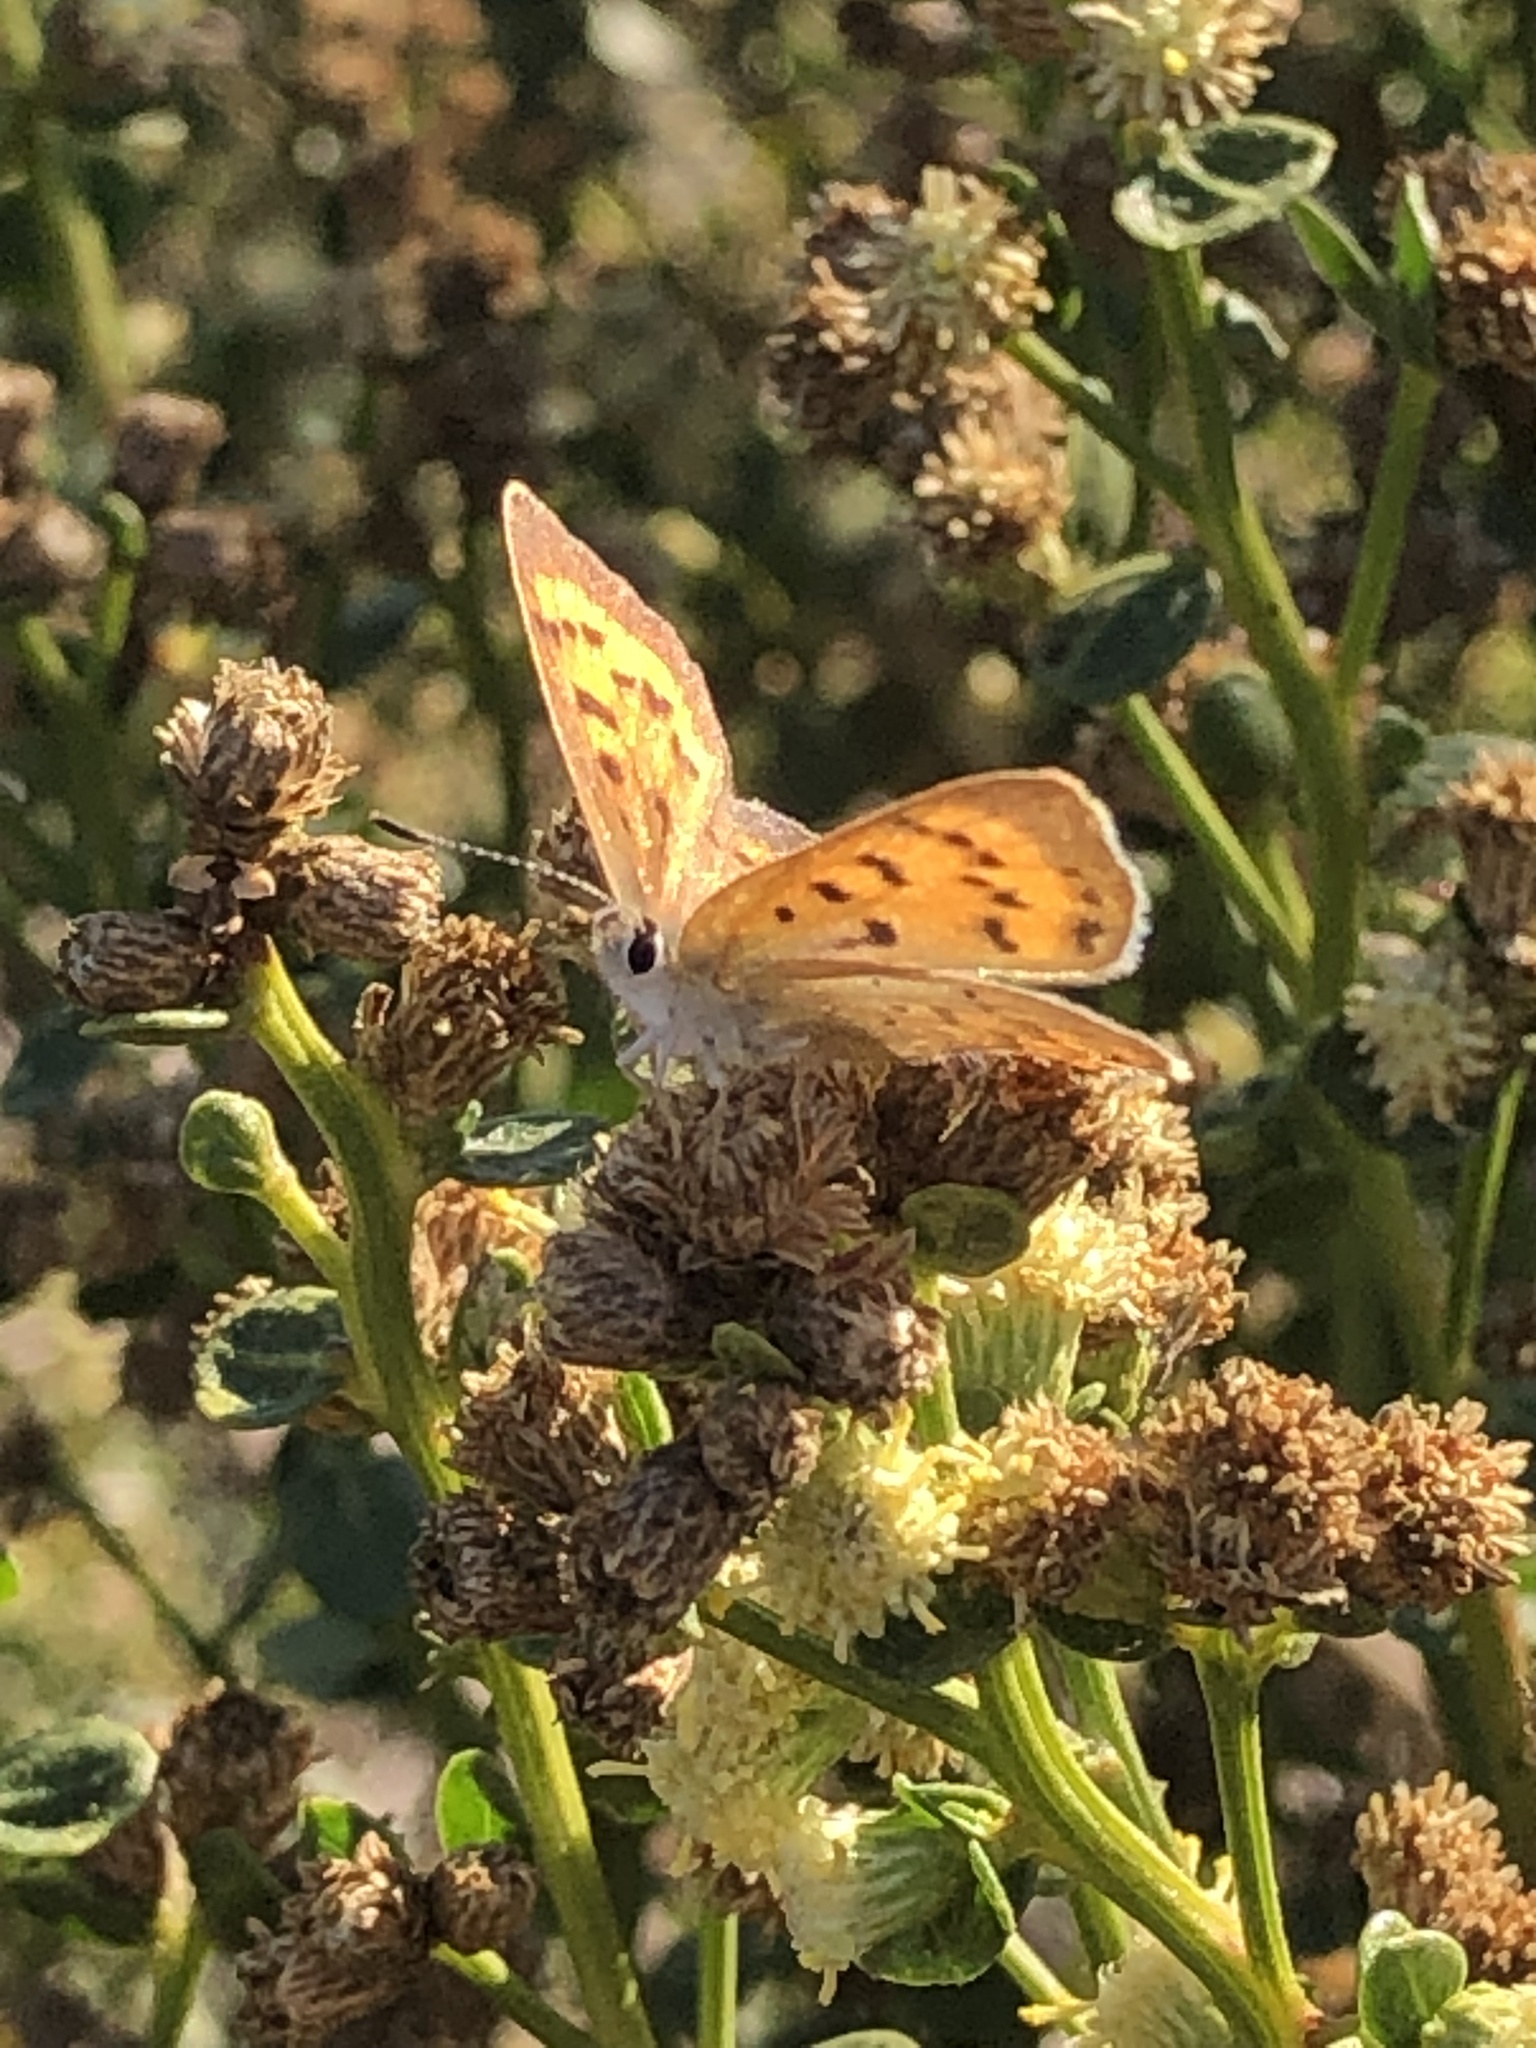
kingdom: Animalia
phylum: Arthropoda
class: Insecta
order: Lepidoptera
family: Lycaenidae
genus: Tharsalea
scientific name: Tharsalea helloides
